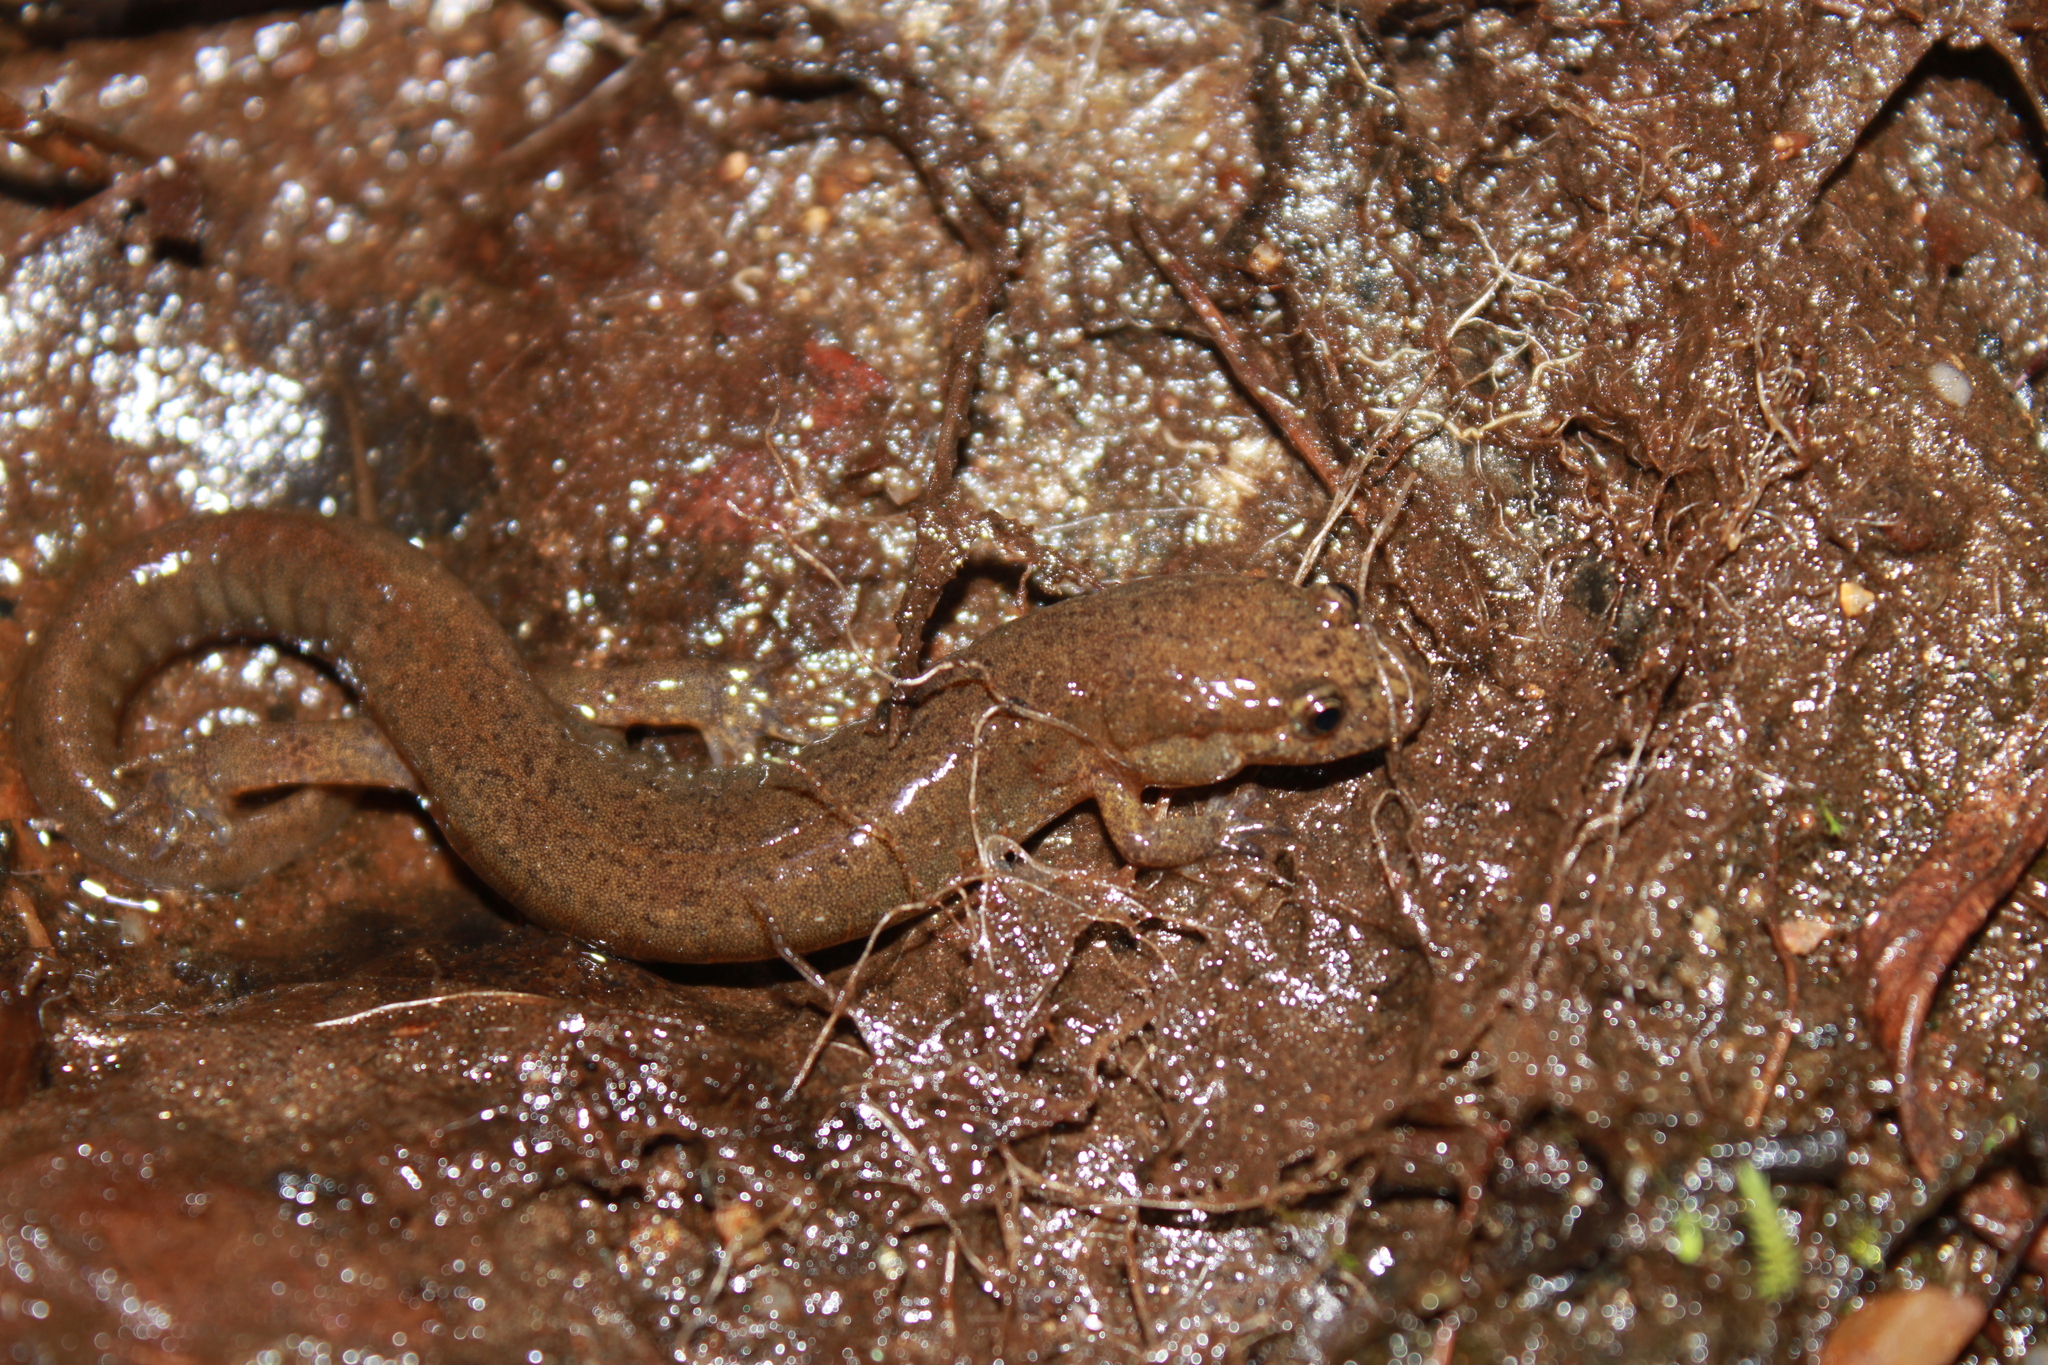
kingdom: Animalia
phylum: Chordata
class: Amphibia
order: Caudata
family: Plethodontidae
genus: Desmognathus
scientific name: Desmognathus fuscus
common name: Northern dusky salamander
